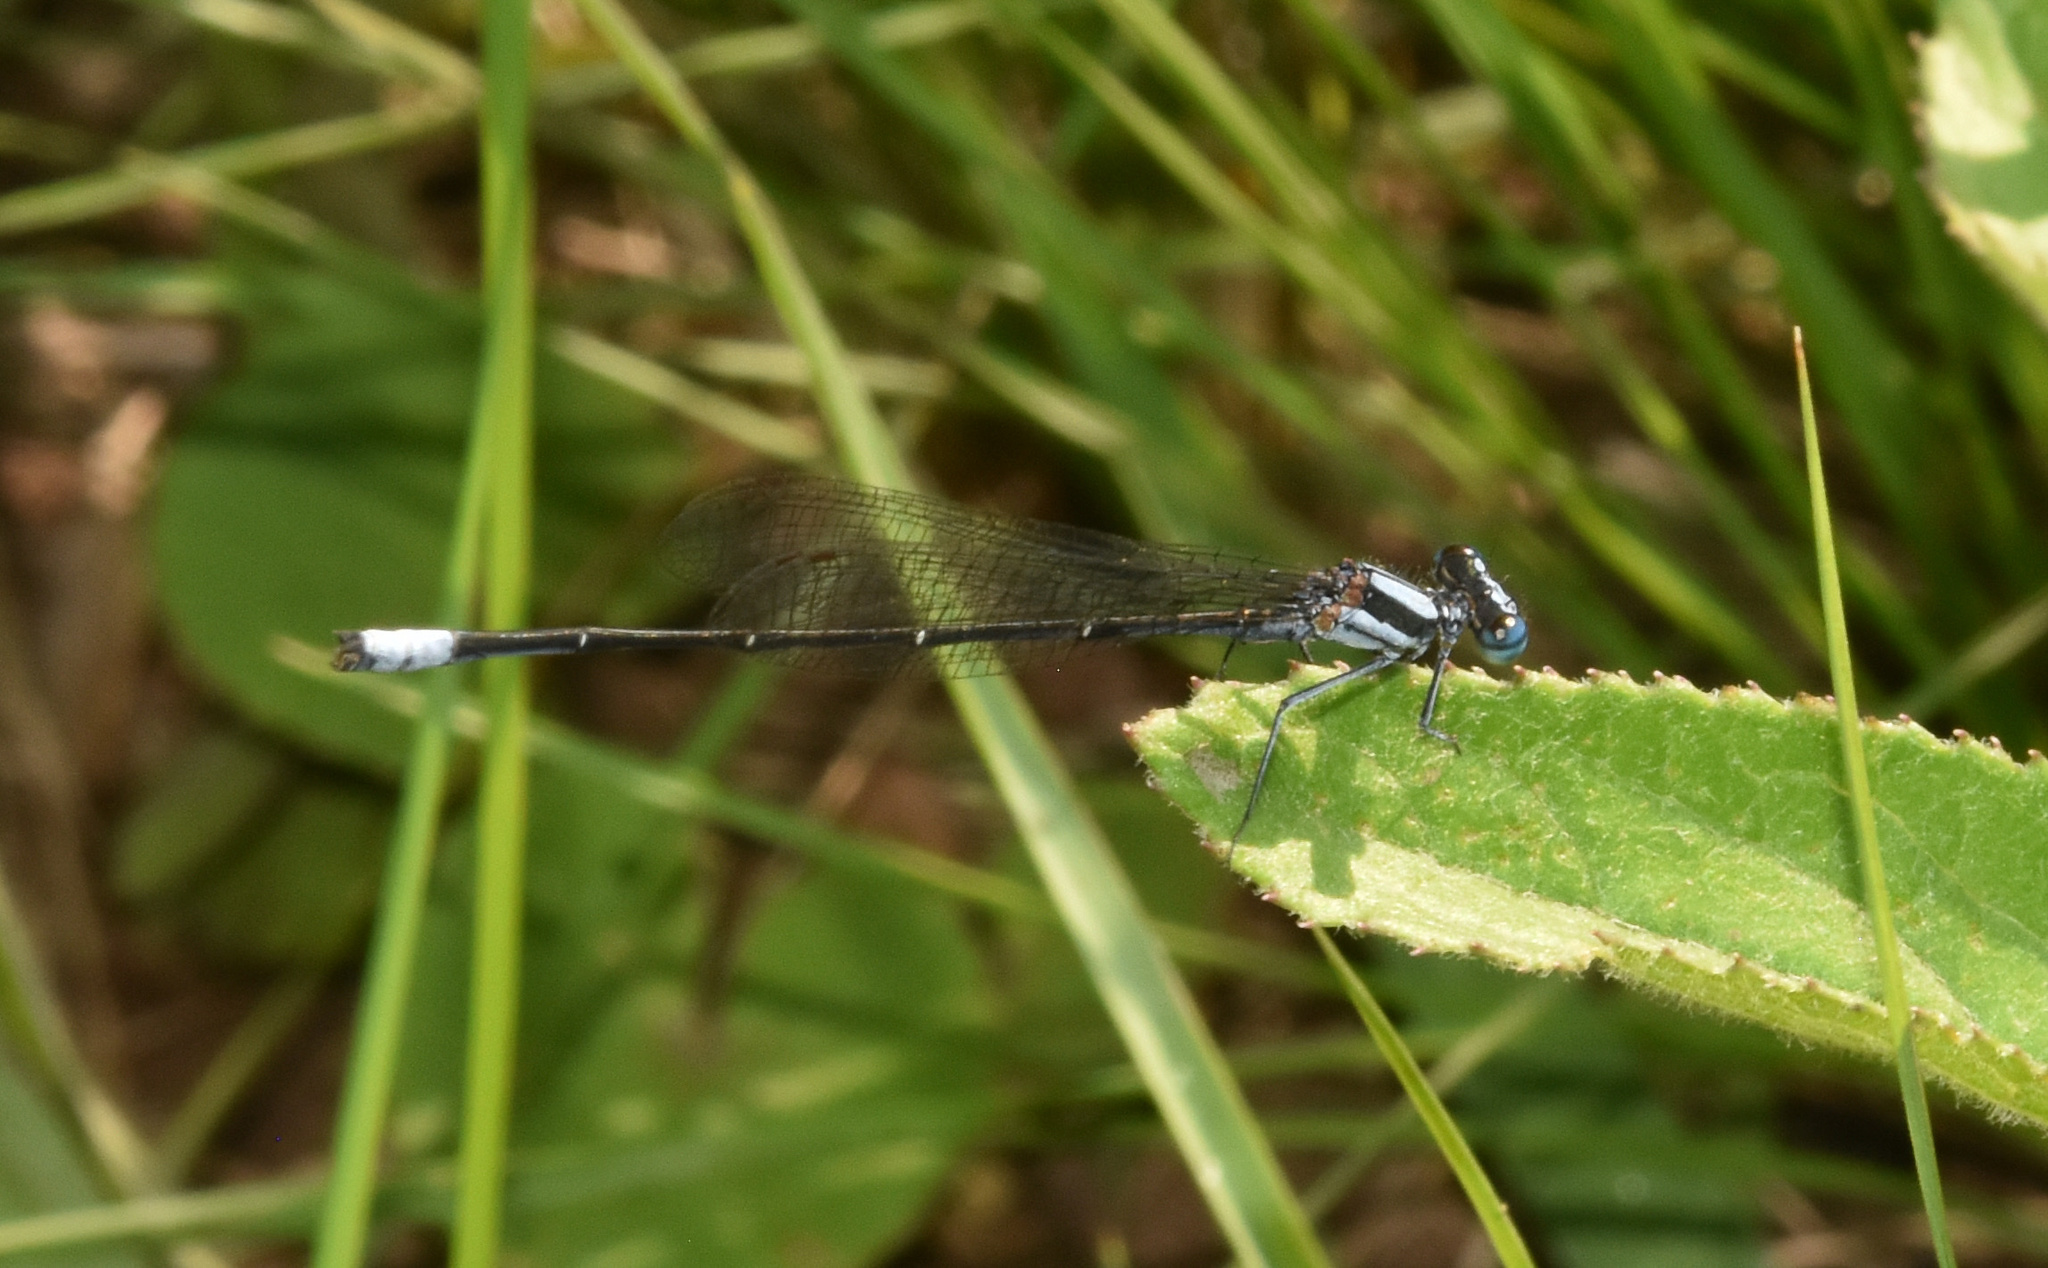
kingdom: Animalia
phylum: Arthropoda
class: Insecta
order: Odonata
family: Platycnemididae
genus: Elattoneura
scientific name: Elattoneura glauca
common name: Common threadtail
